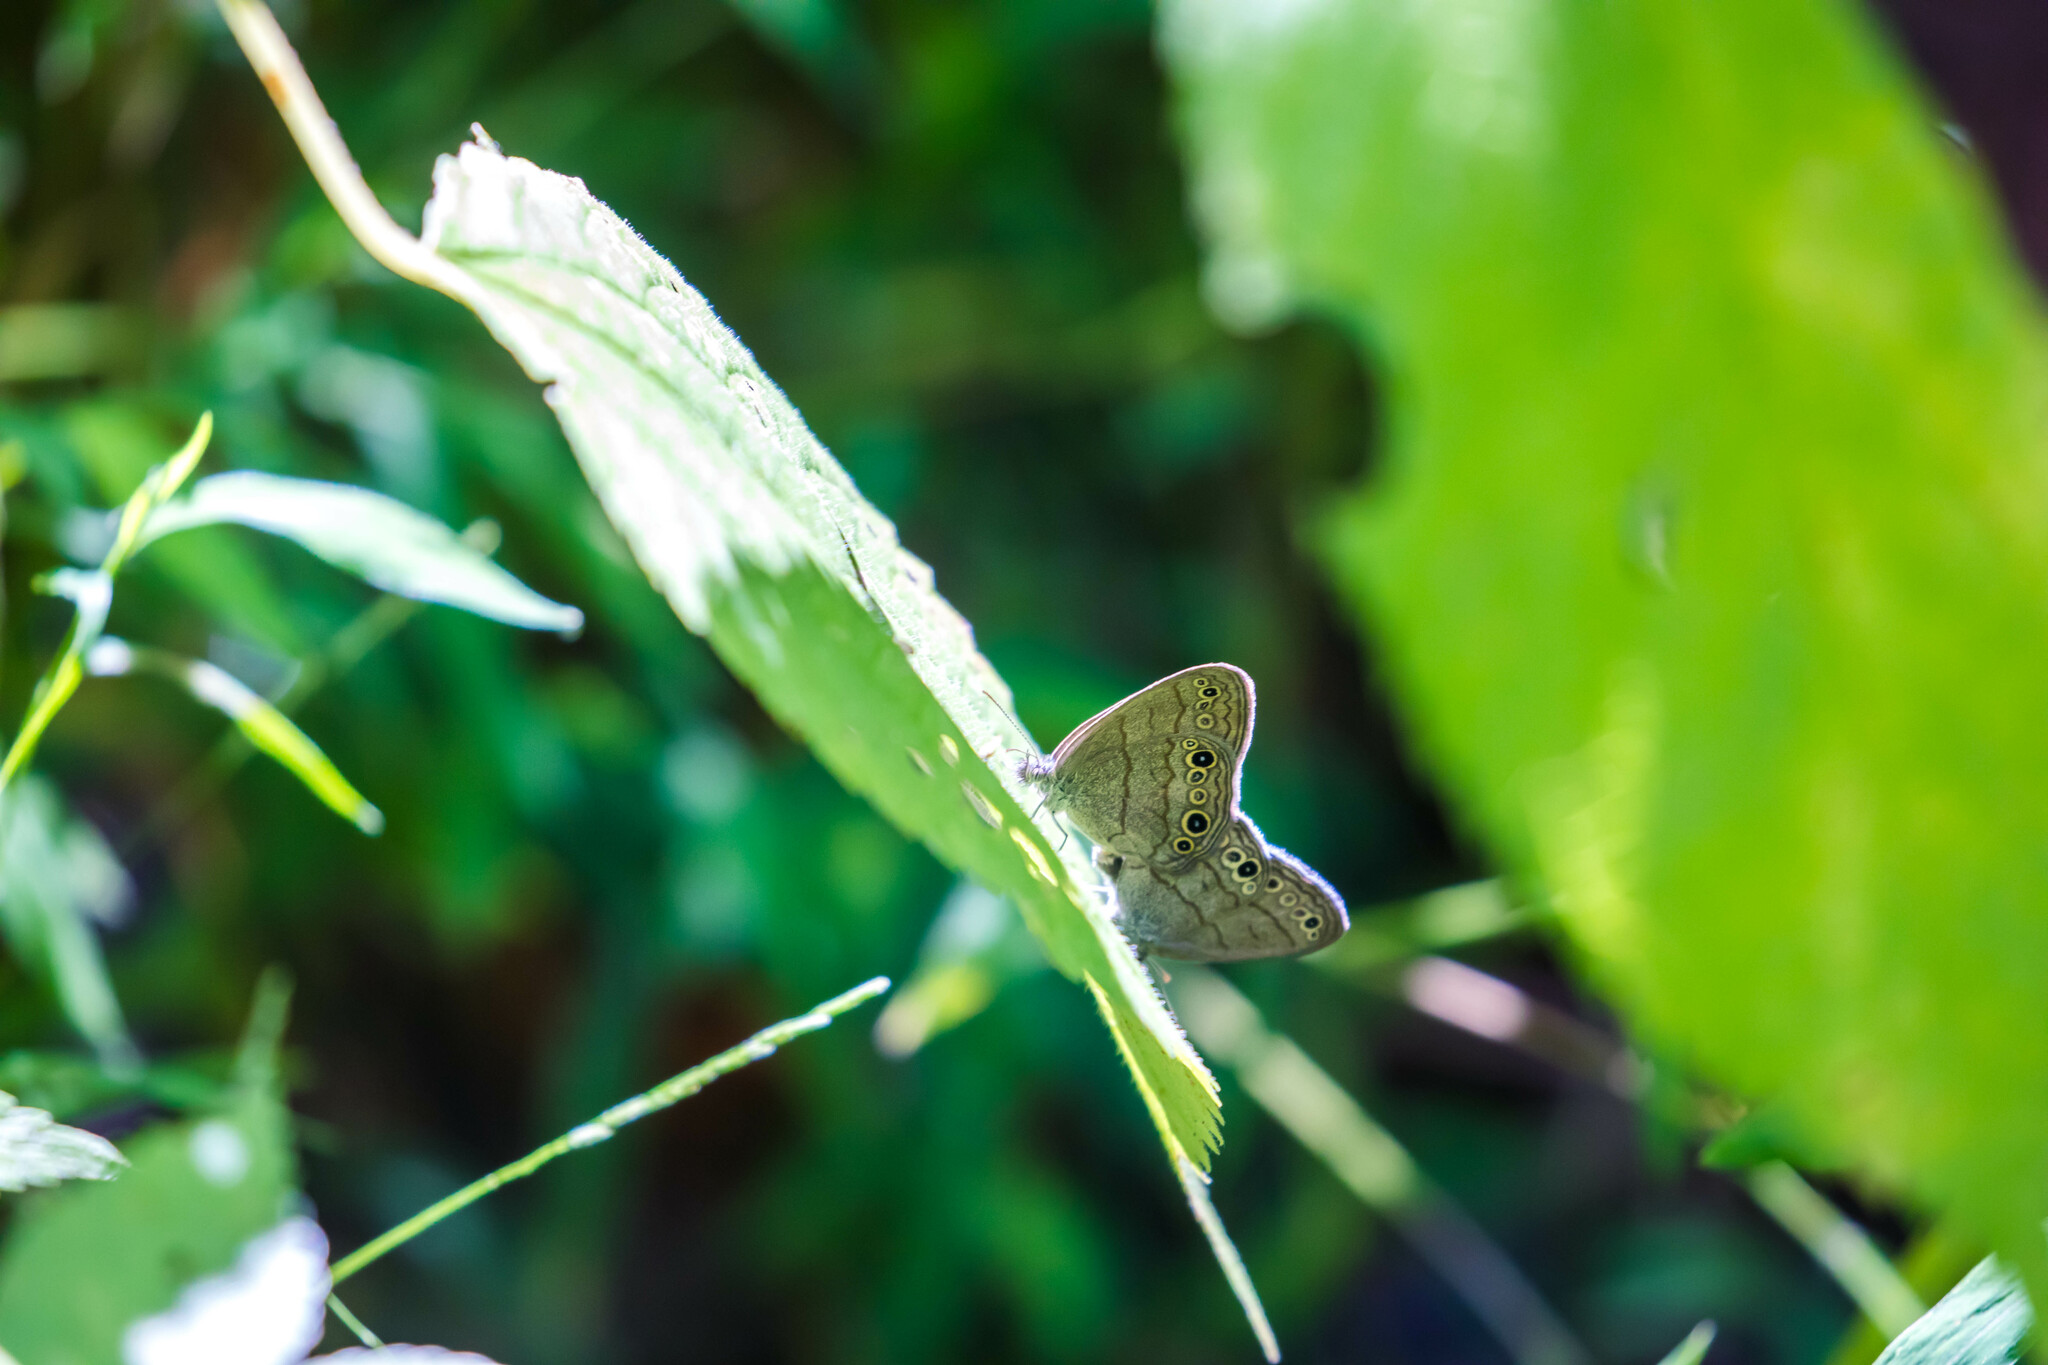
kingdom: Animalia
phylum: Arthropoda
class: Insecta
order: Lepidoptera
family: Nymphalidae
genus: Hermeuptychia
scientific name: Hermeuptychia hermes
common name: Hermes satyr
